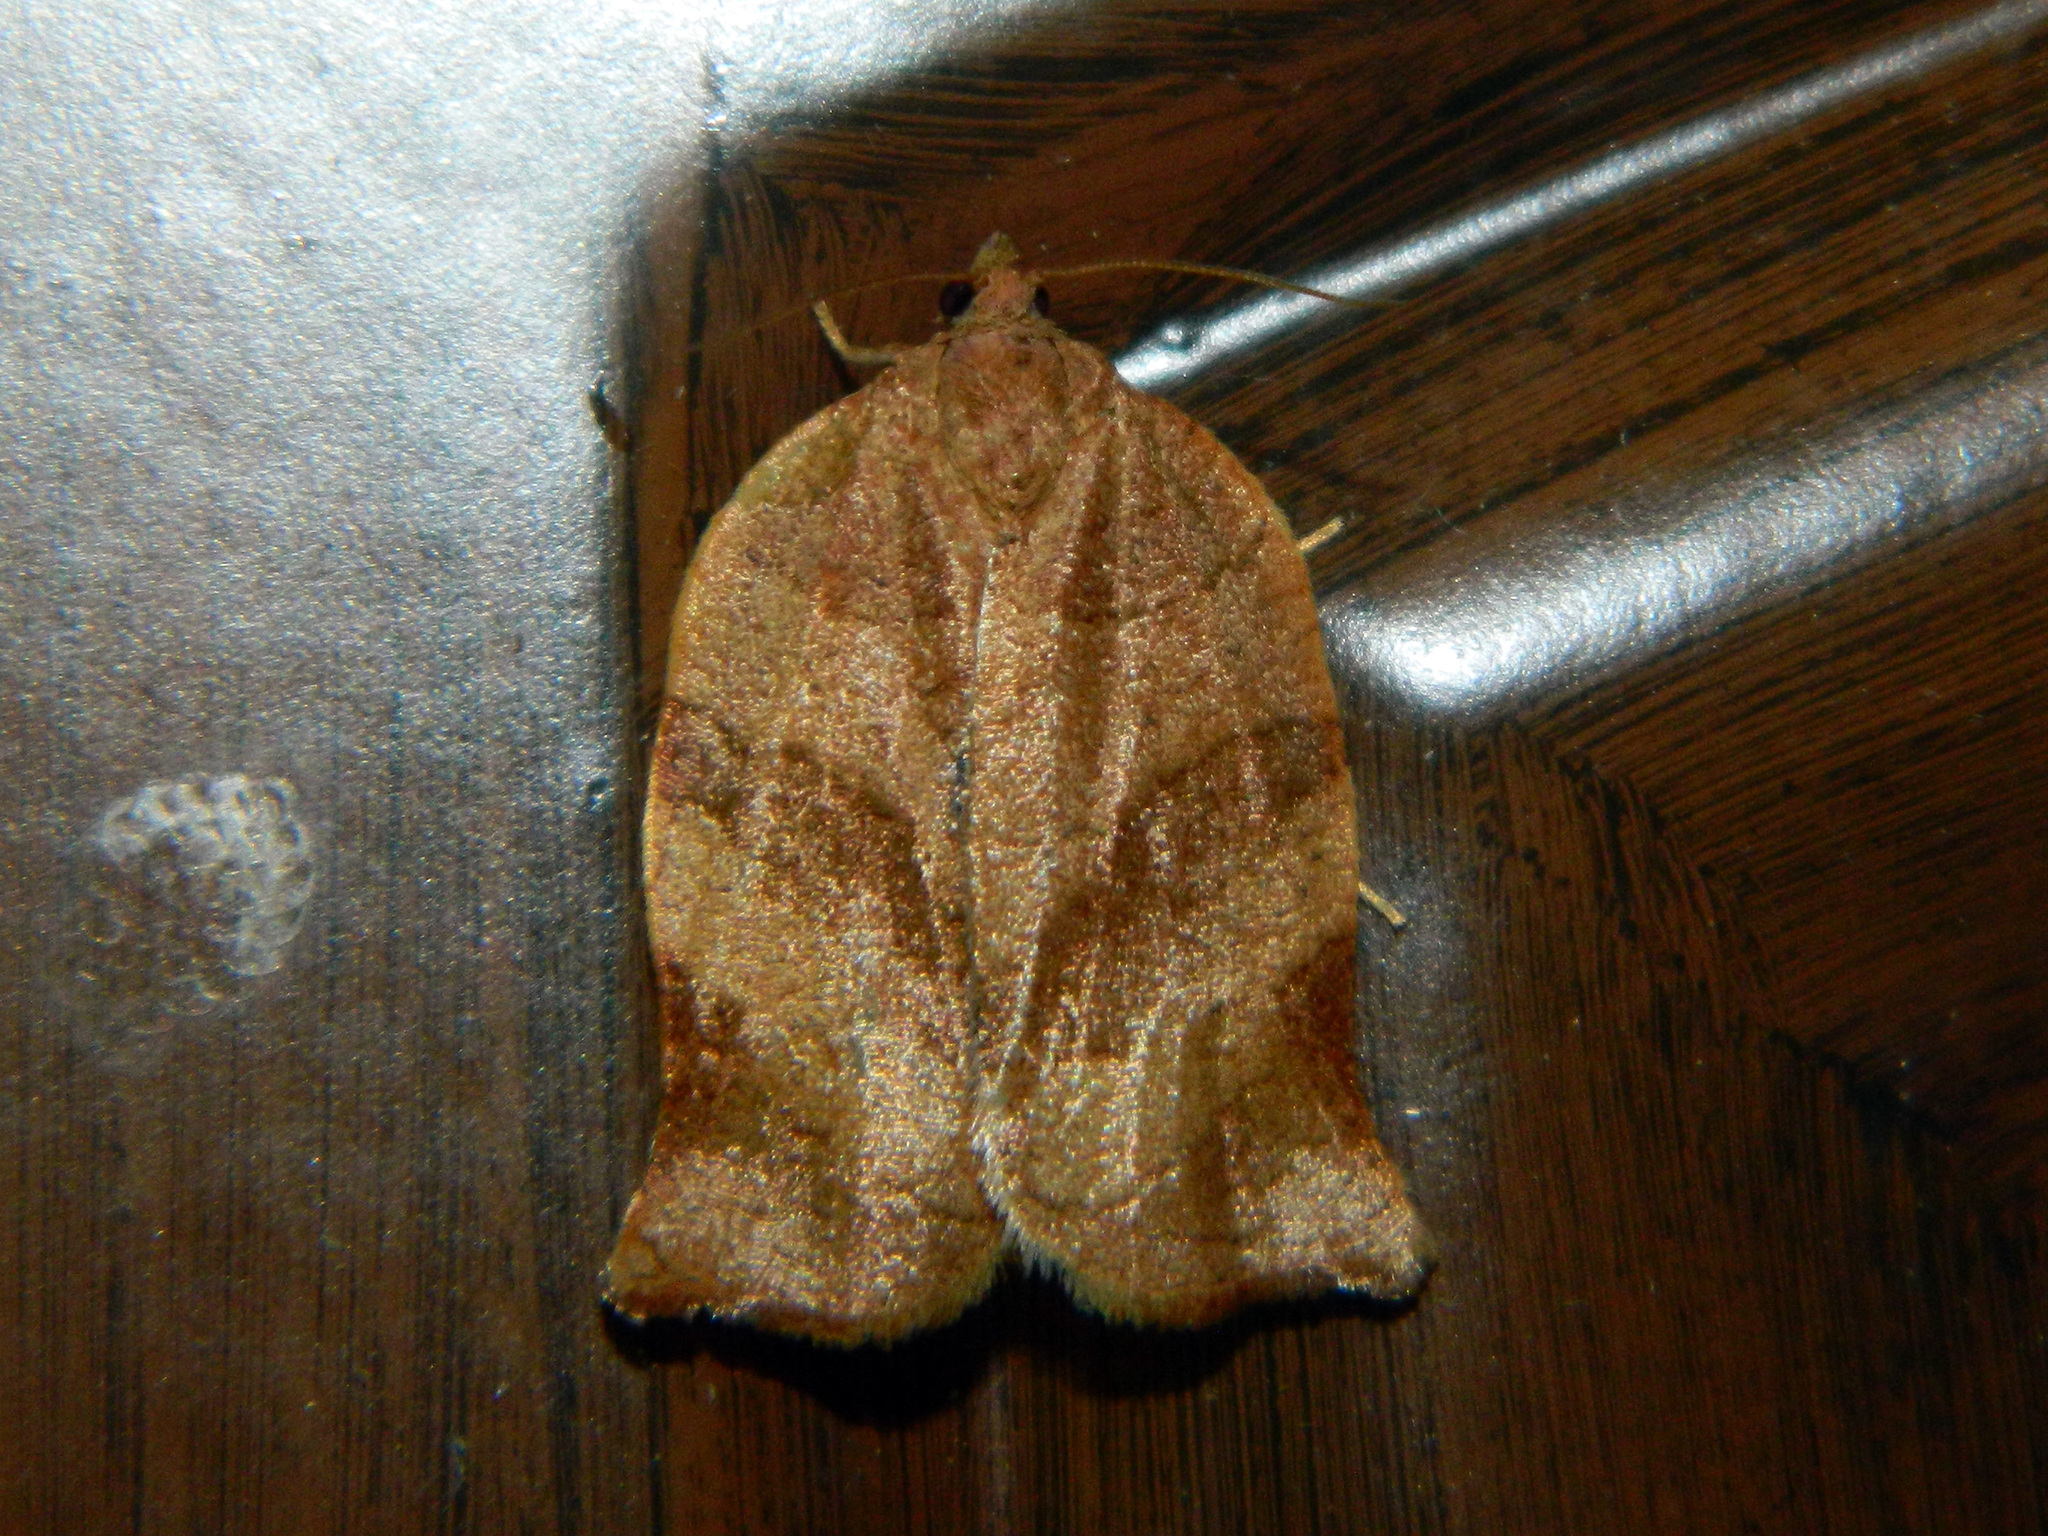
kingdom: Animalia
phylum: Arthropoda
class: Insecta
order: Lepidoptera
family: Tortricidae
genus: Choristoneura
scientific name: Choristoneura rosaceana
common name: Oblique-banded leafroller moth
